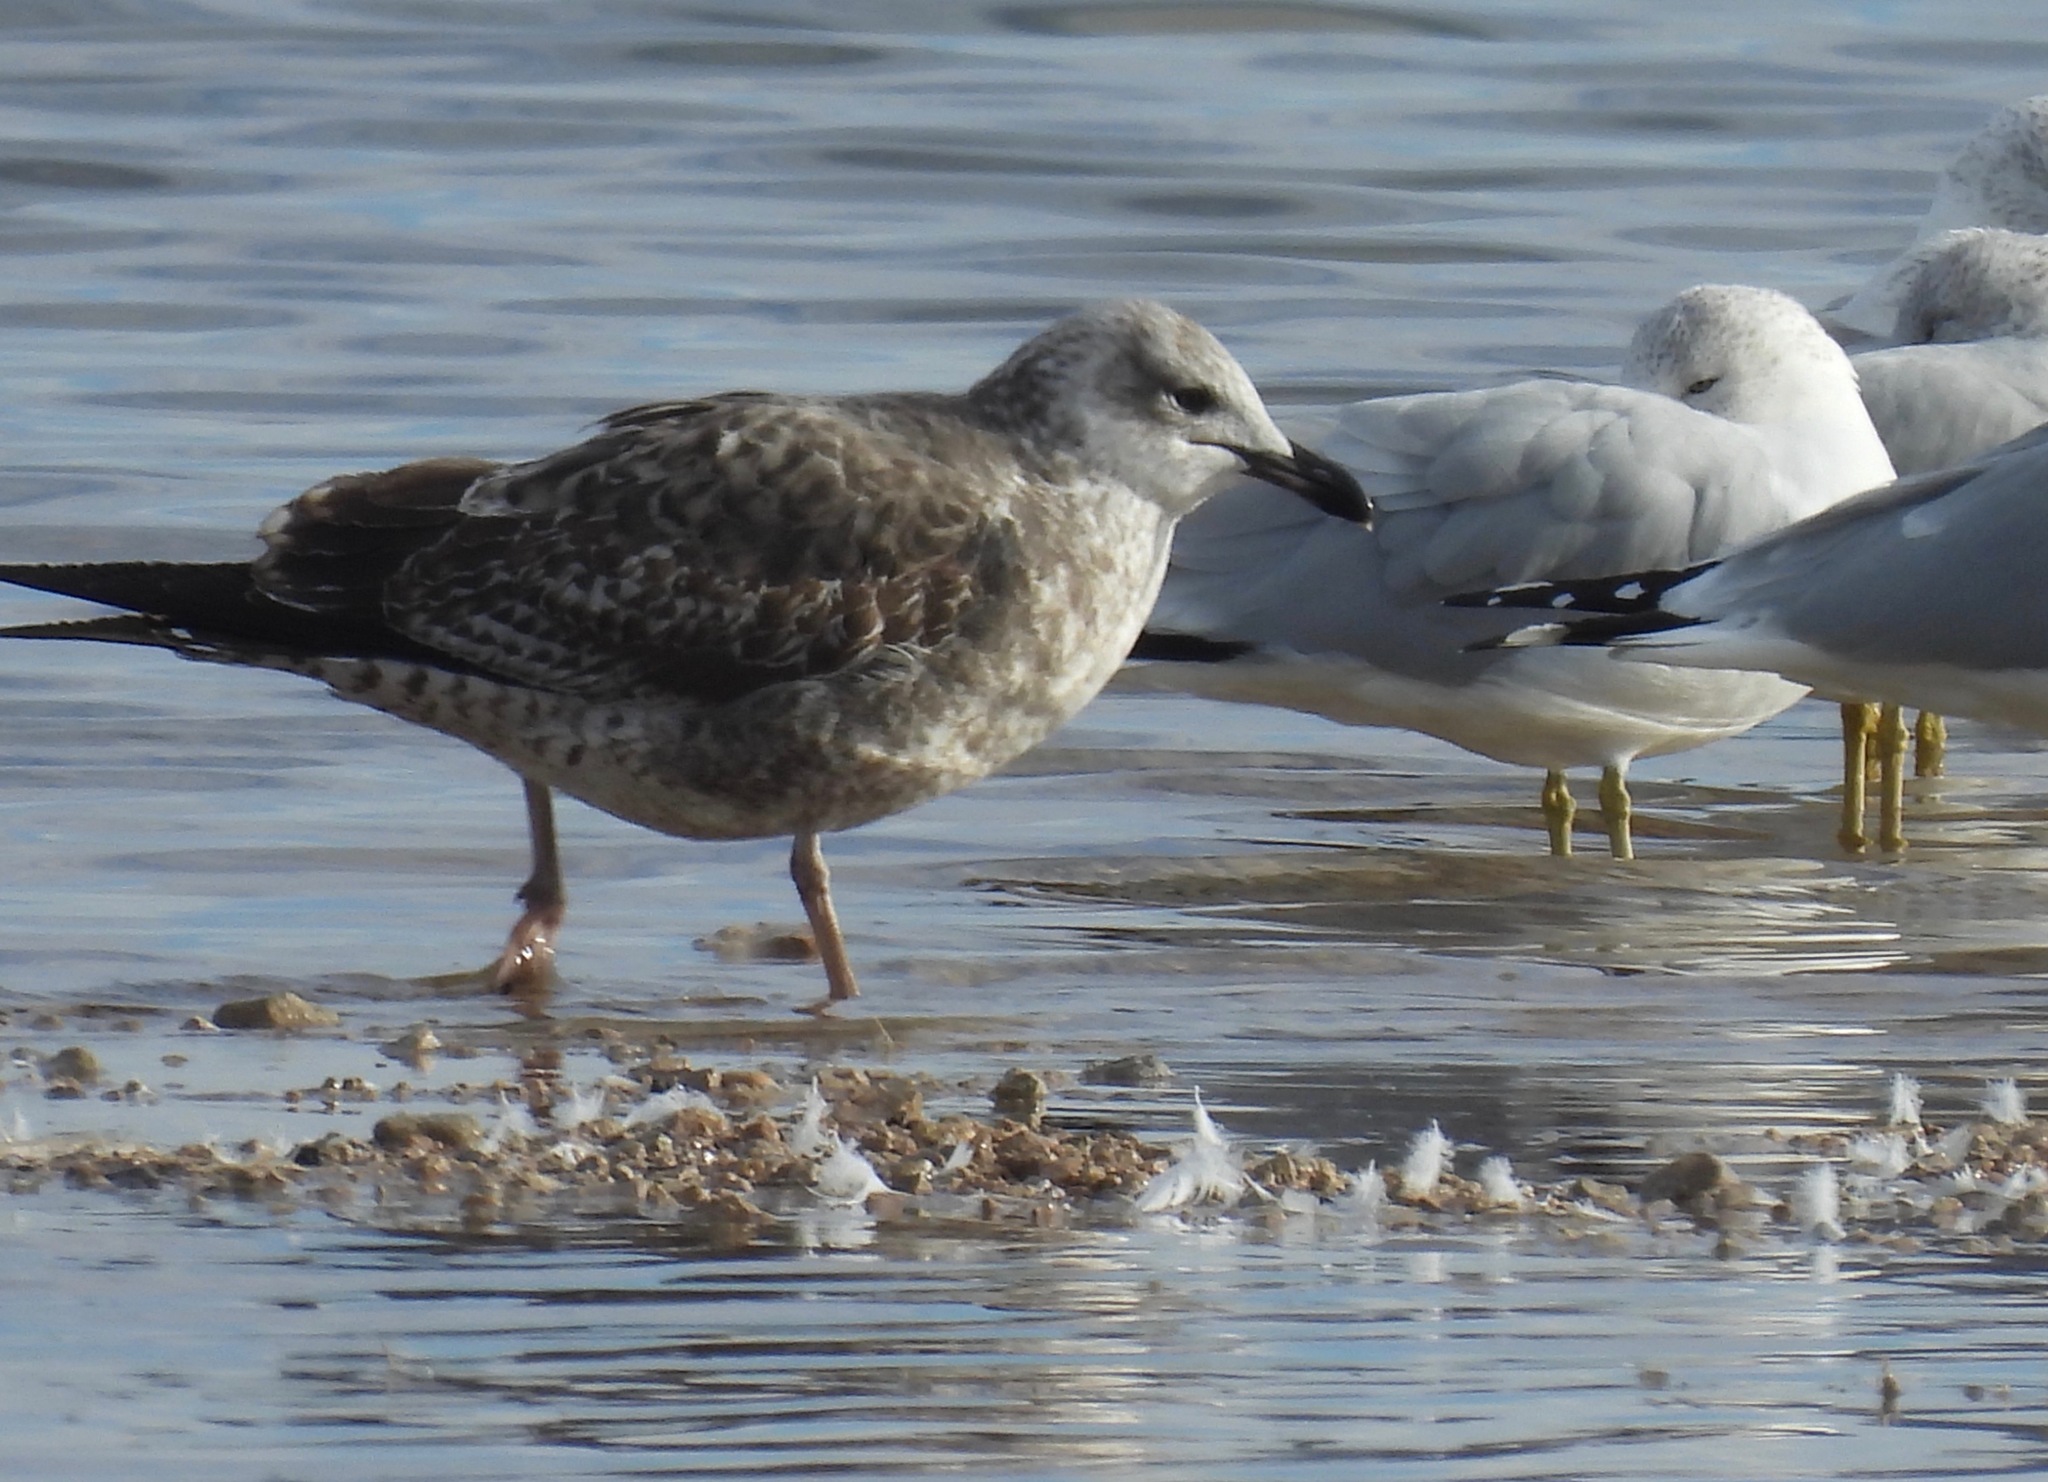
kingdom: Animalia
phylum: Chordata
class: Aves
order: Charadriiformes
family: Laridae
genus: Larus
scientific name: Larus fuscus
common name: Lesser black-backed gull
